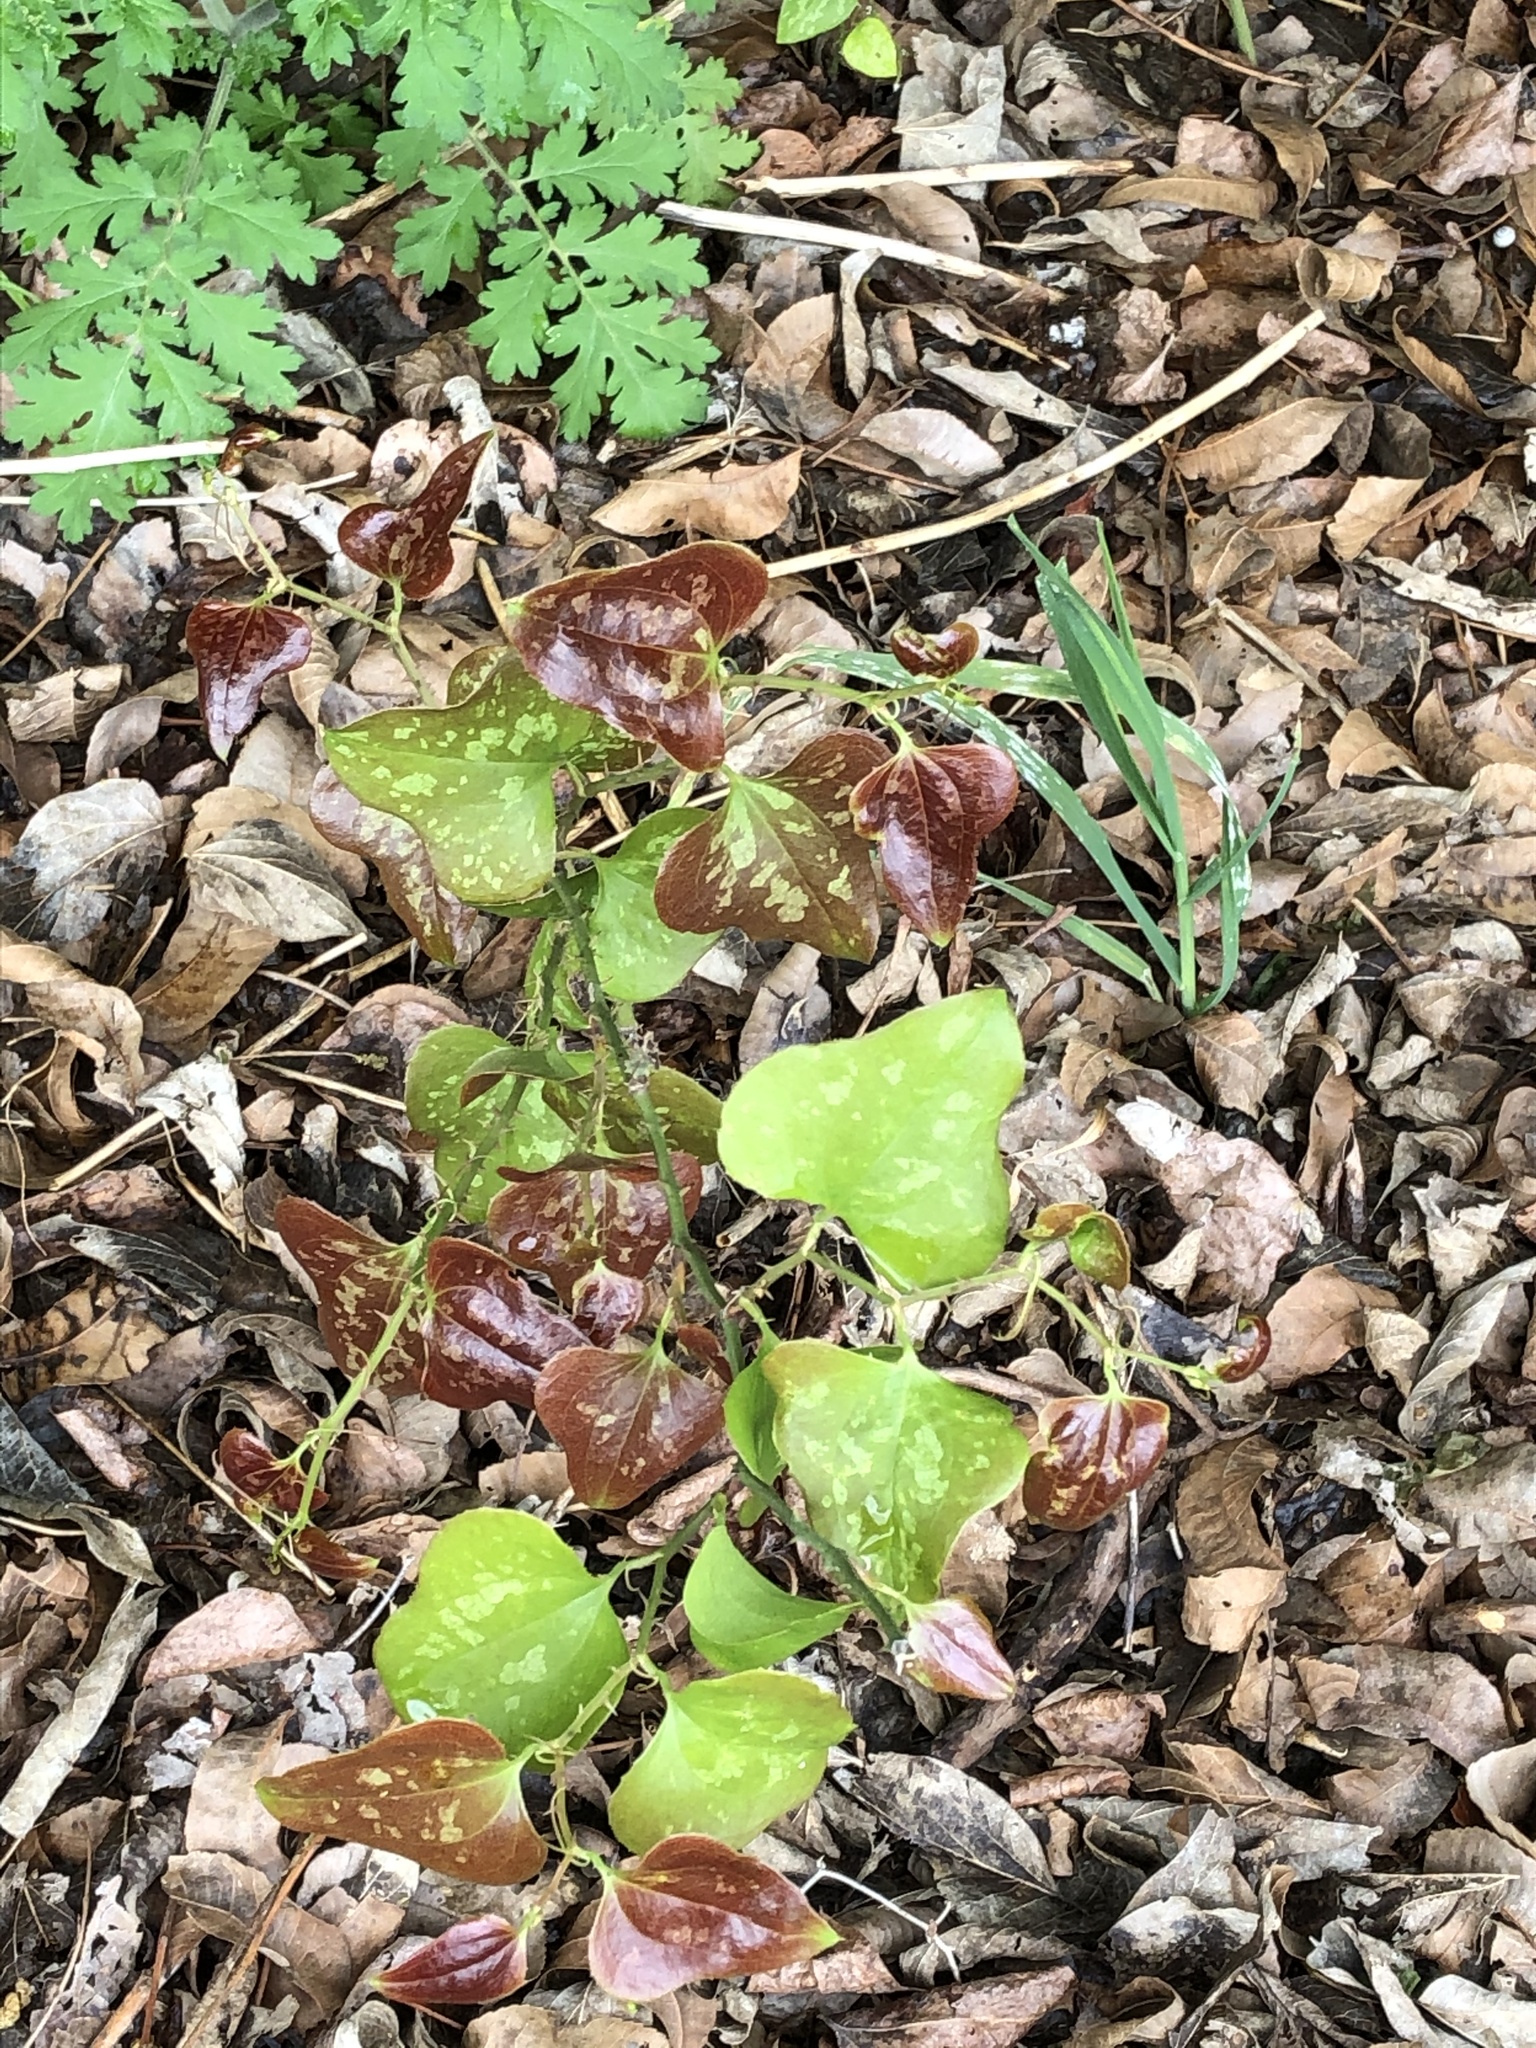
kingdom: Plantae
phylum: Tracheophyta
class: Liliopsida
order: Liliales
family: Smilacaceae
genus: Smilax
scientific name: Smilax bona-nox
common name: Catbrier
